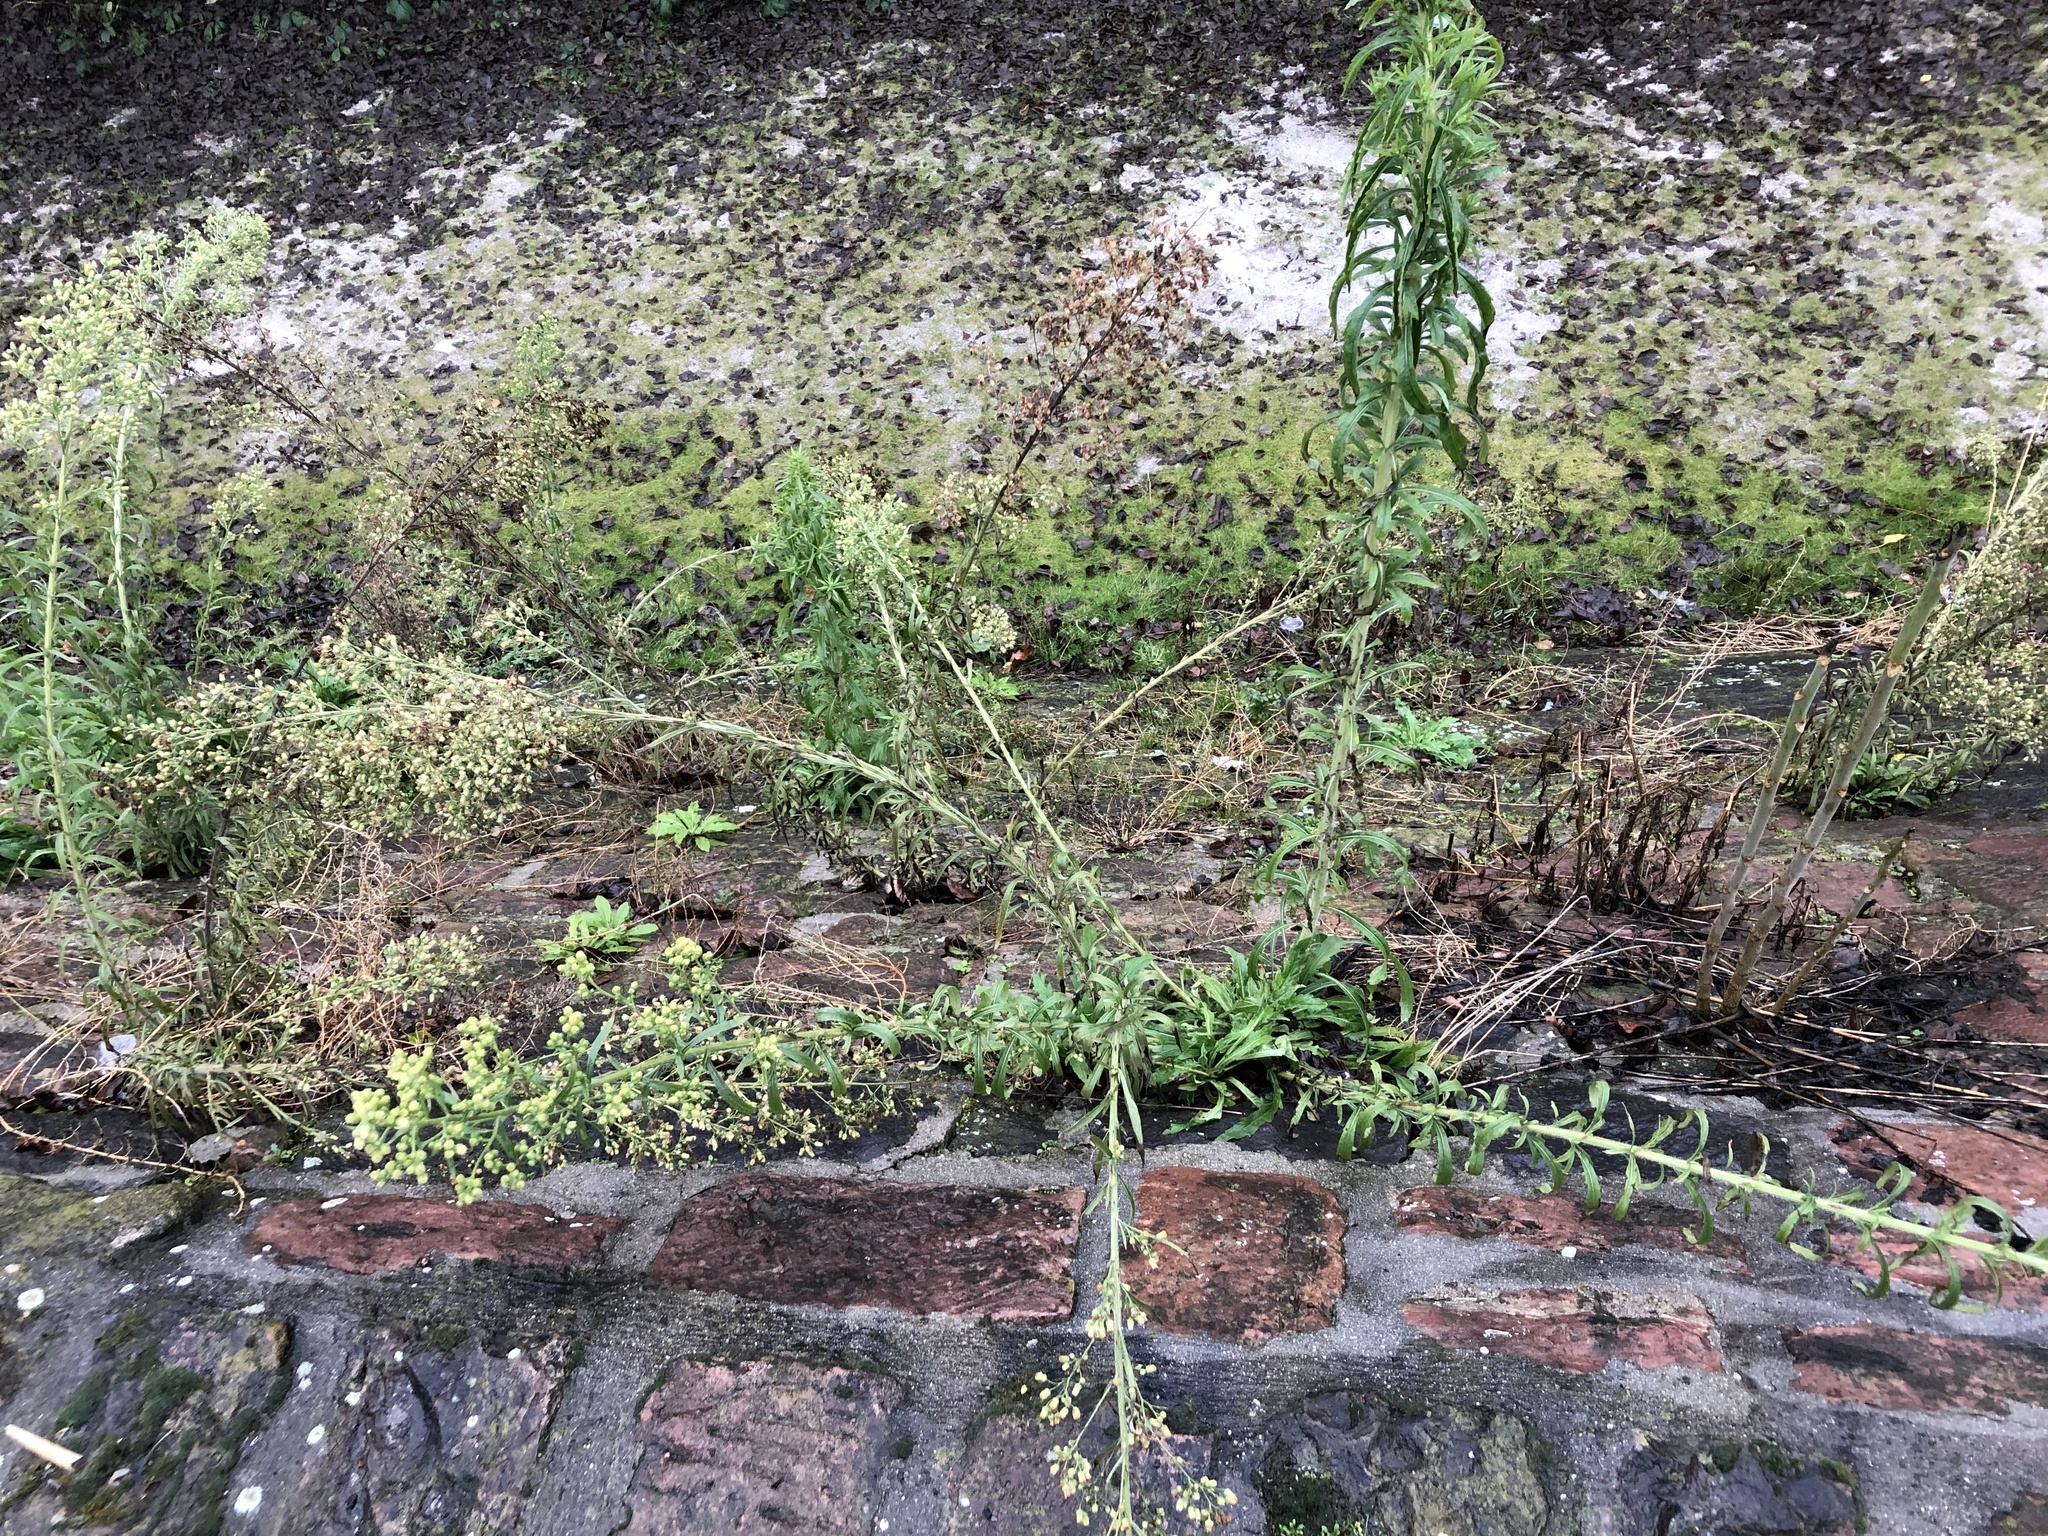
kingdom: Plantae
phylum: Tracheophyta
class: Magnoliopsida
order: Asterales
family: Asteraceae
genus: Erigeron
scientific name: Erigeron canadensis
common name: Canadian fleabane
